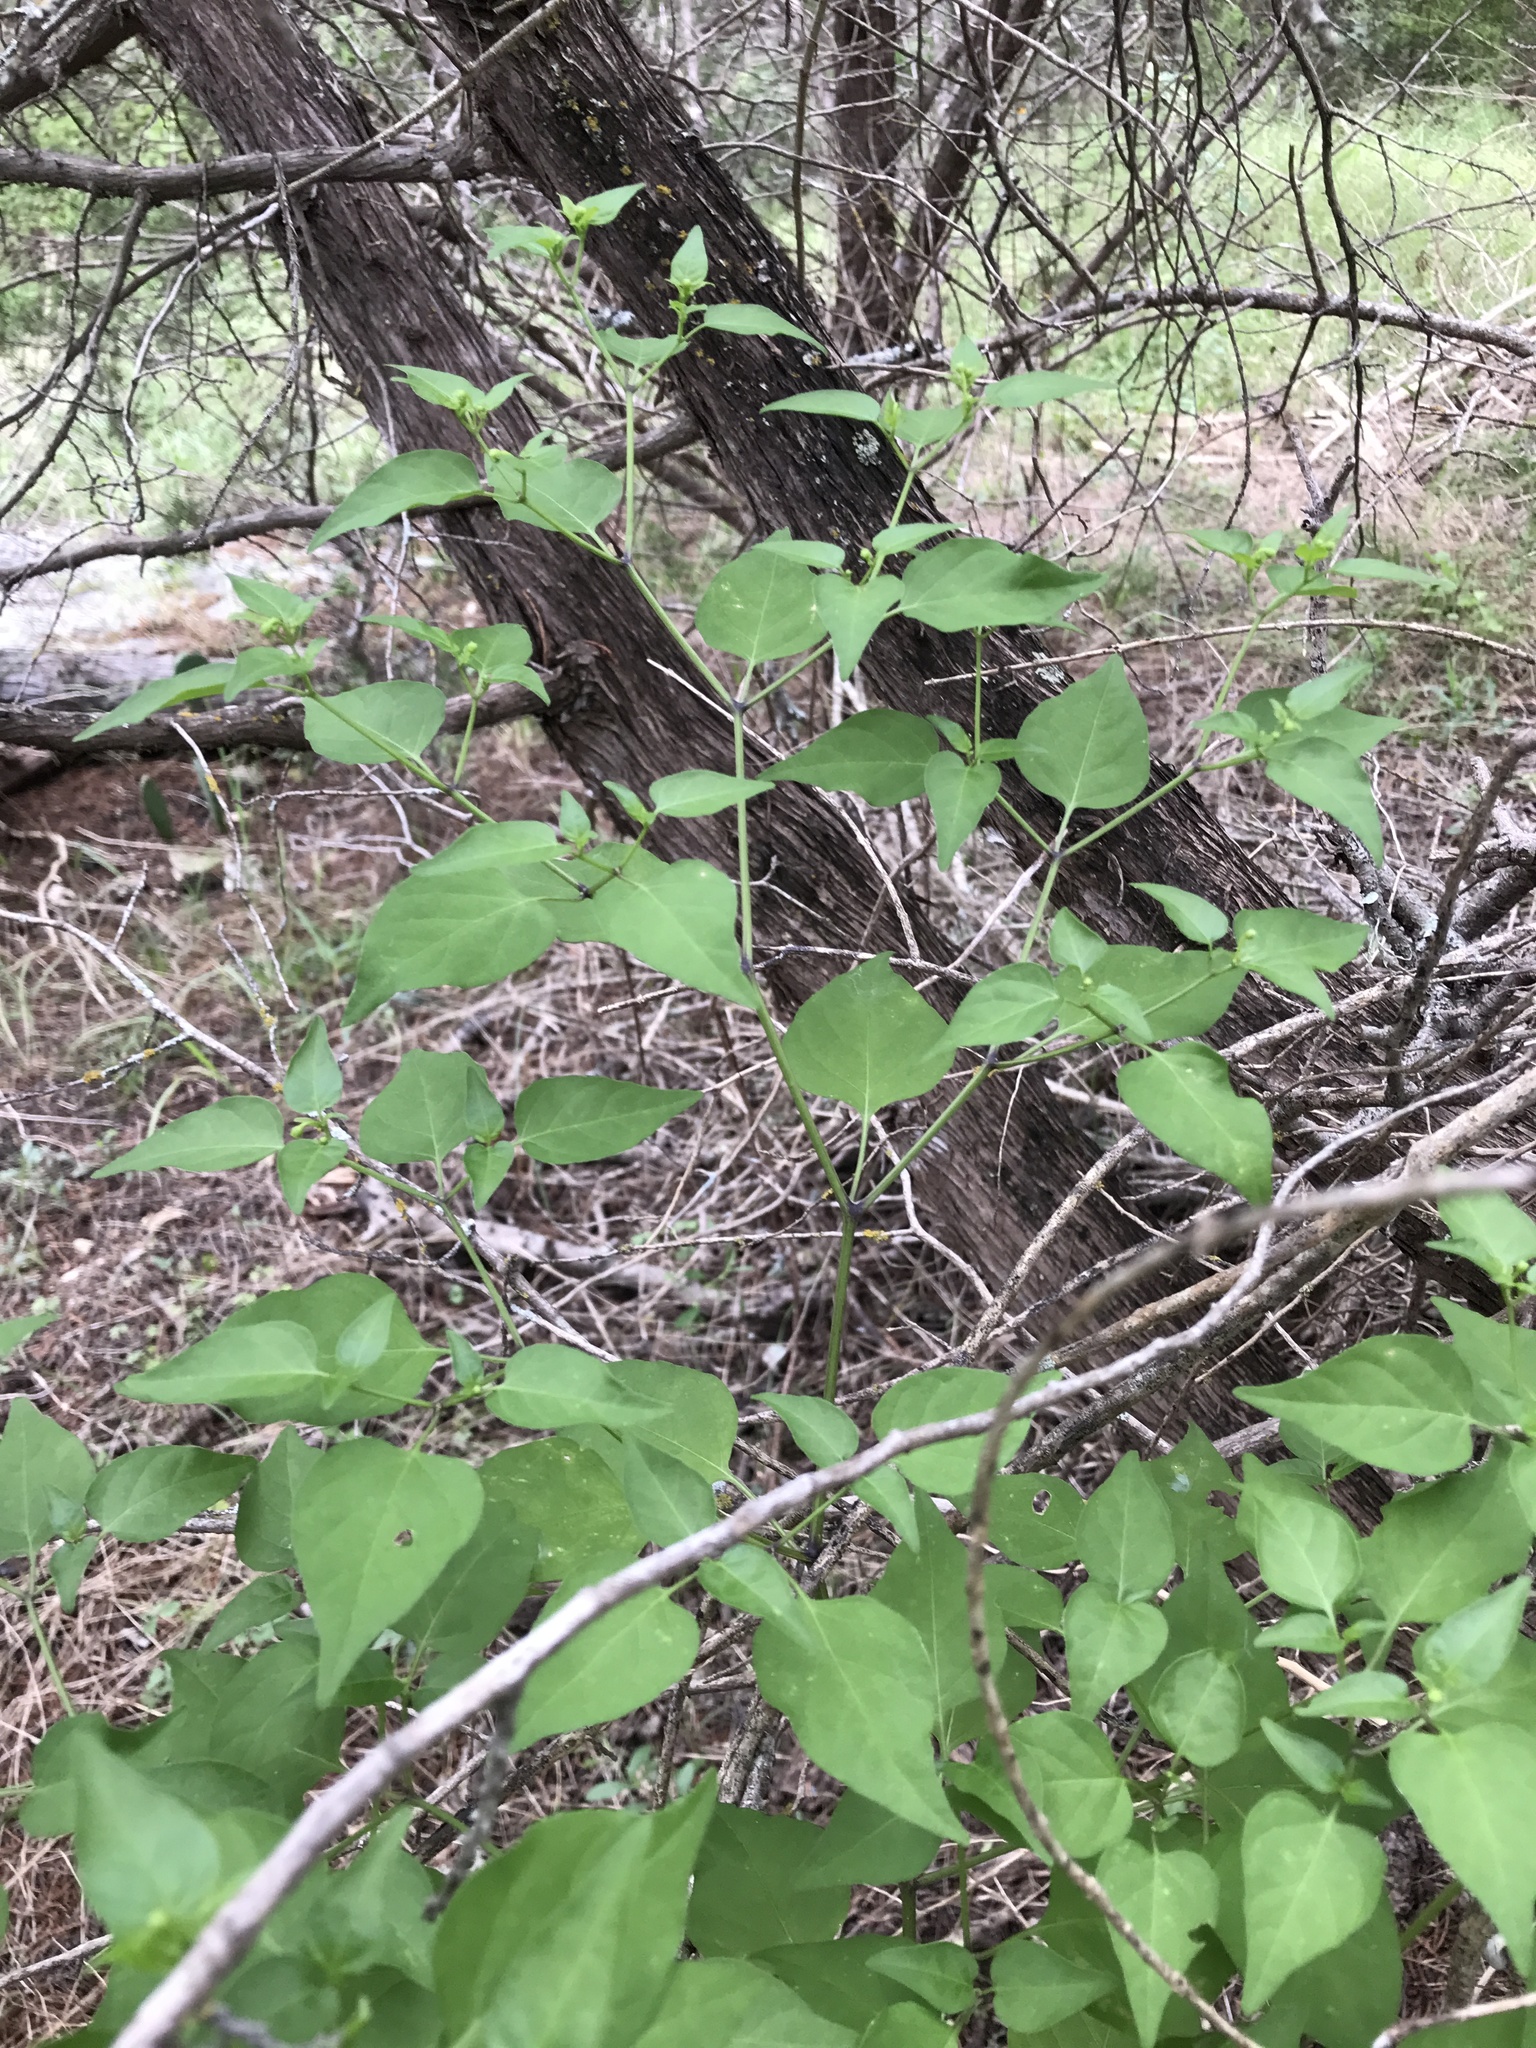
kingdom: Plantae
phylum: Tracheophyta
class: Magnoliopsida
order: Solanales
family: Solanaceae
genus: Capsicum
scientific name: Capsicum annuum
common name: Sweet pepper
